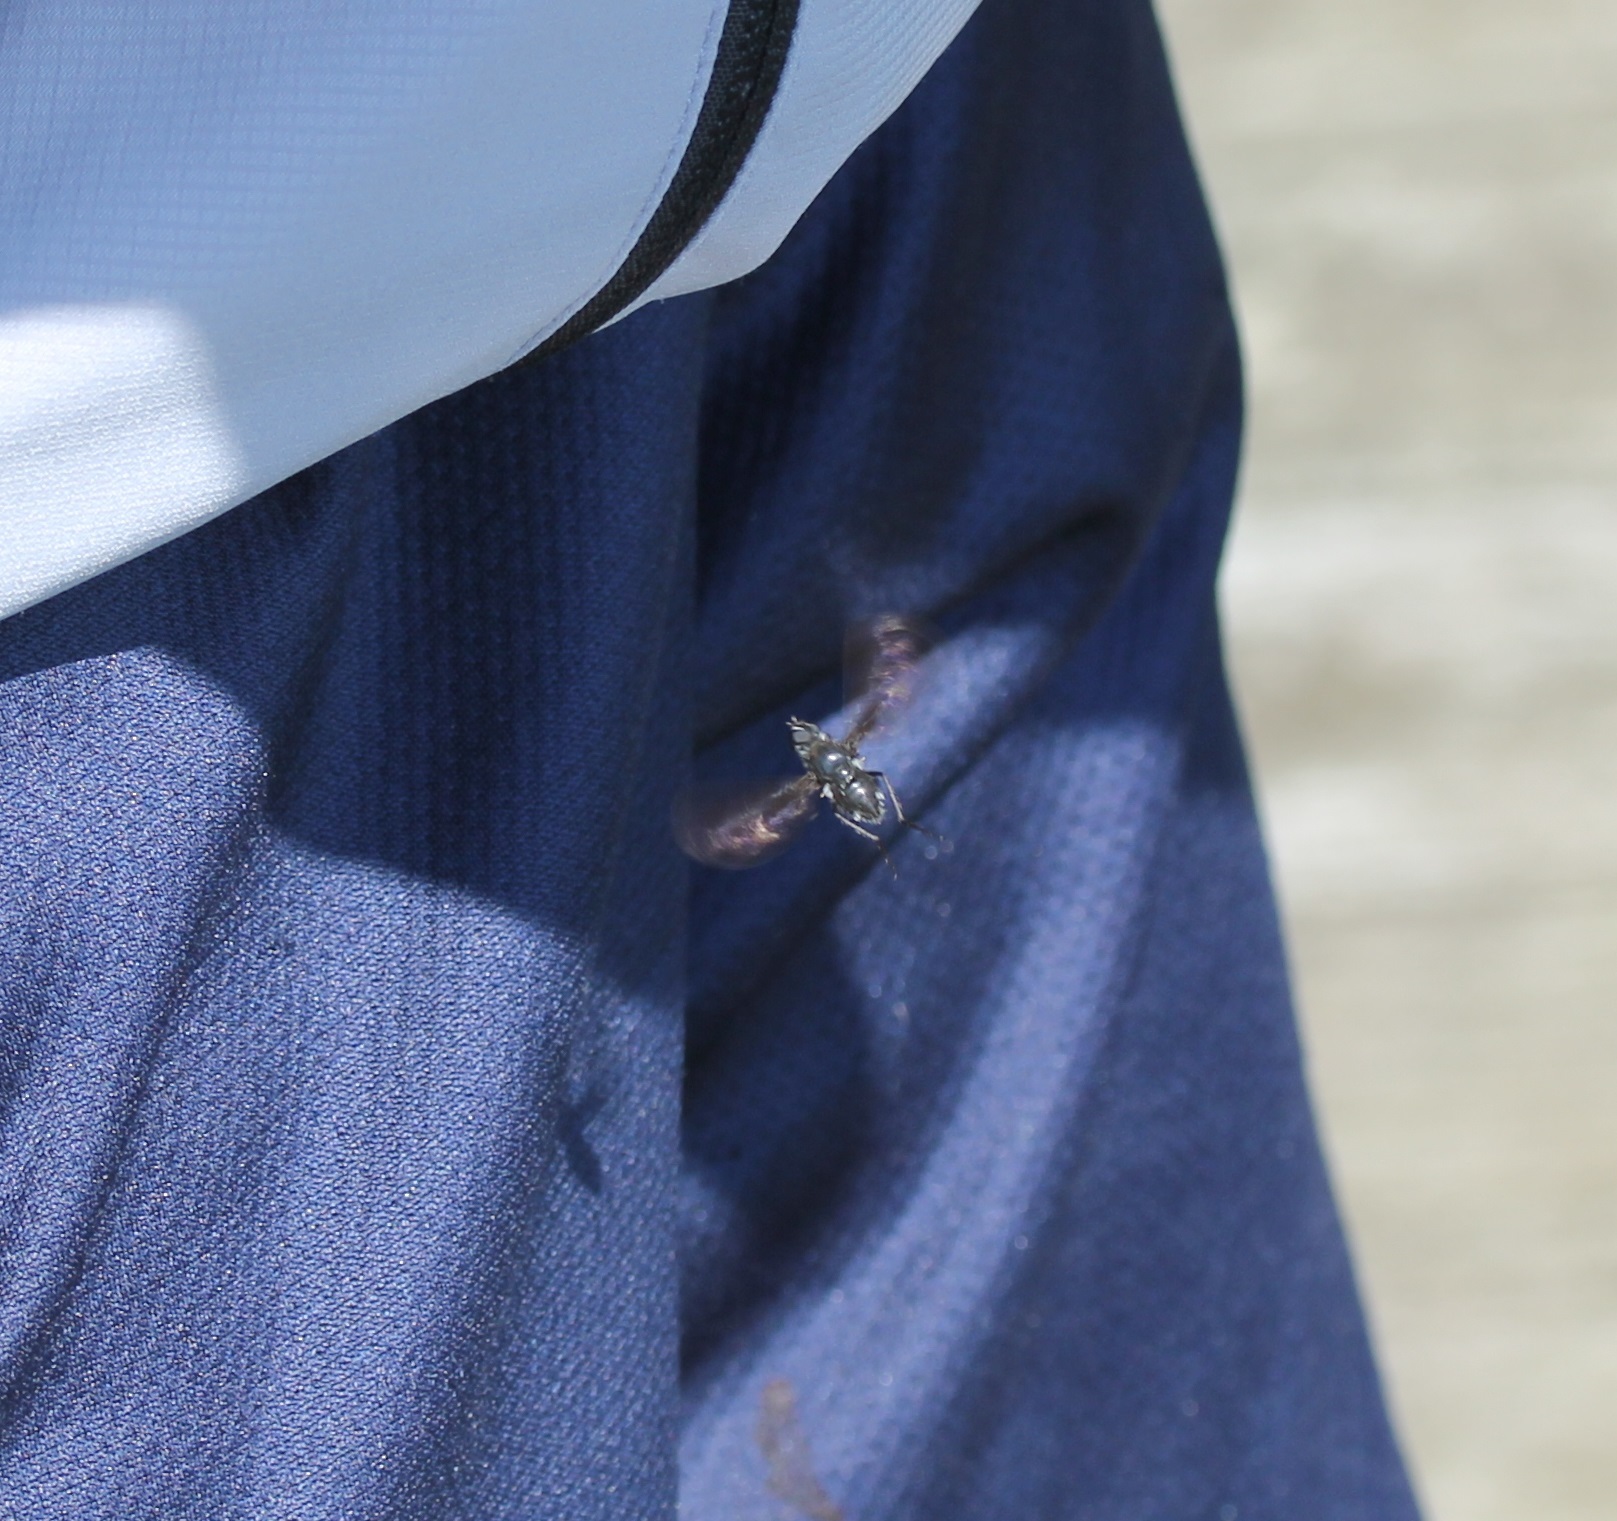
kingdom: Animalia
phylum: Arthropoda
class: Insecta
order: Diptera
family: Bombyliidae
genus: Brachyanax
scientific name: Brachyanax aterrimus
